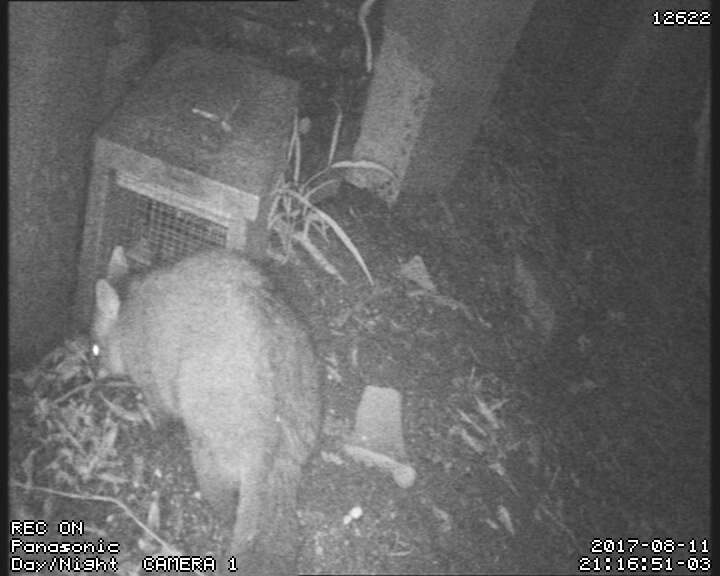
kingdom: Animalia
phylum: Chordata
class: Mammalia
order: Diprotodontia
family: Phalangeridae
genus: Trichosurus
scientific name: Trichosurus vulpecula
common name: Common brushtail
